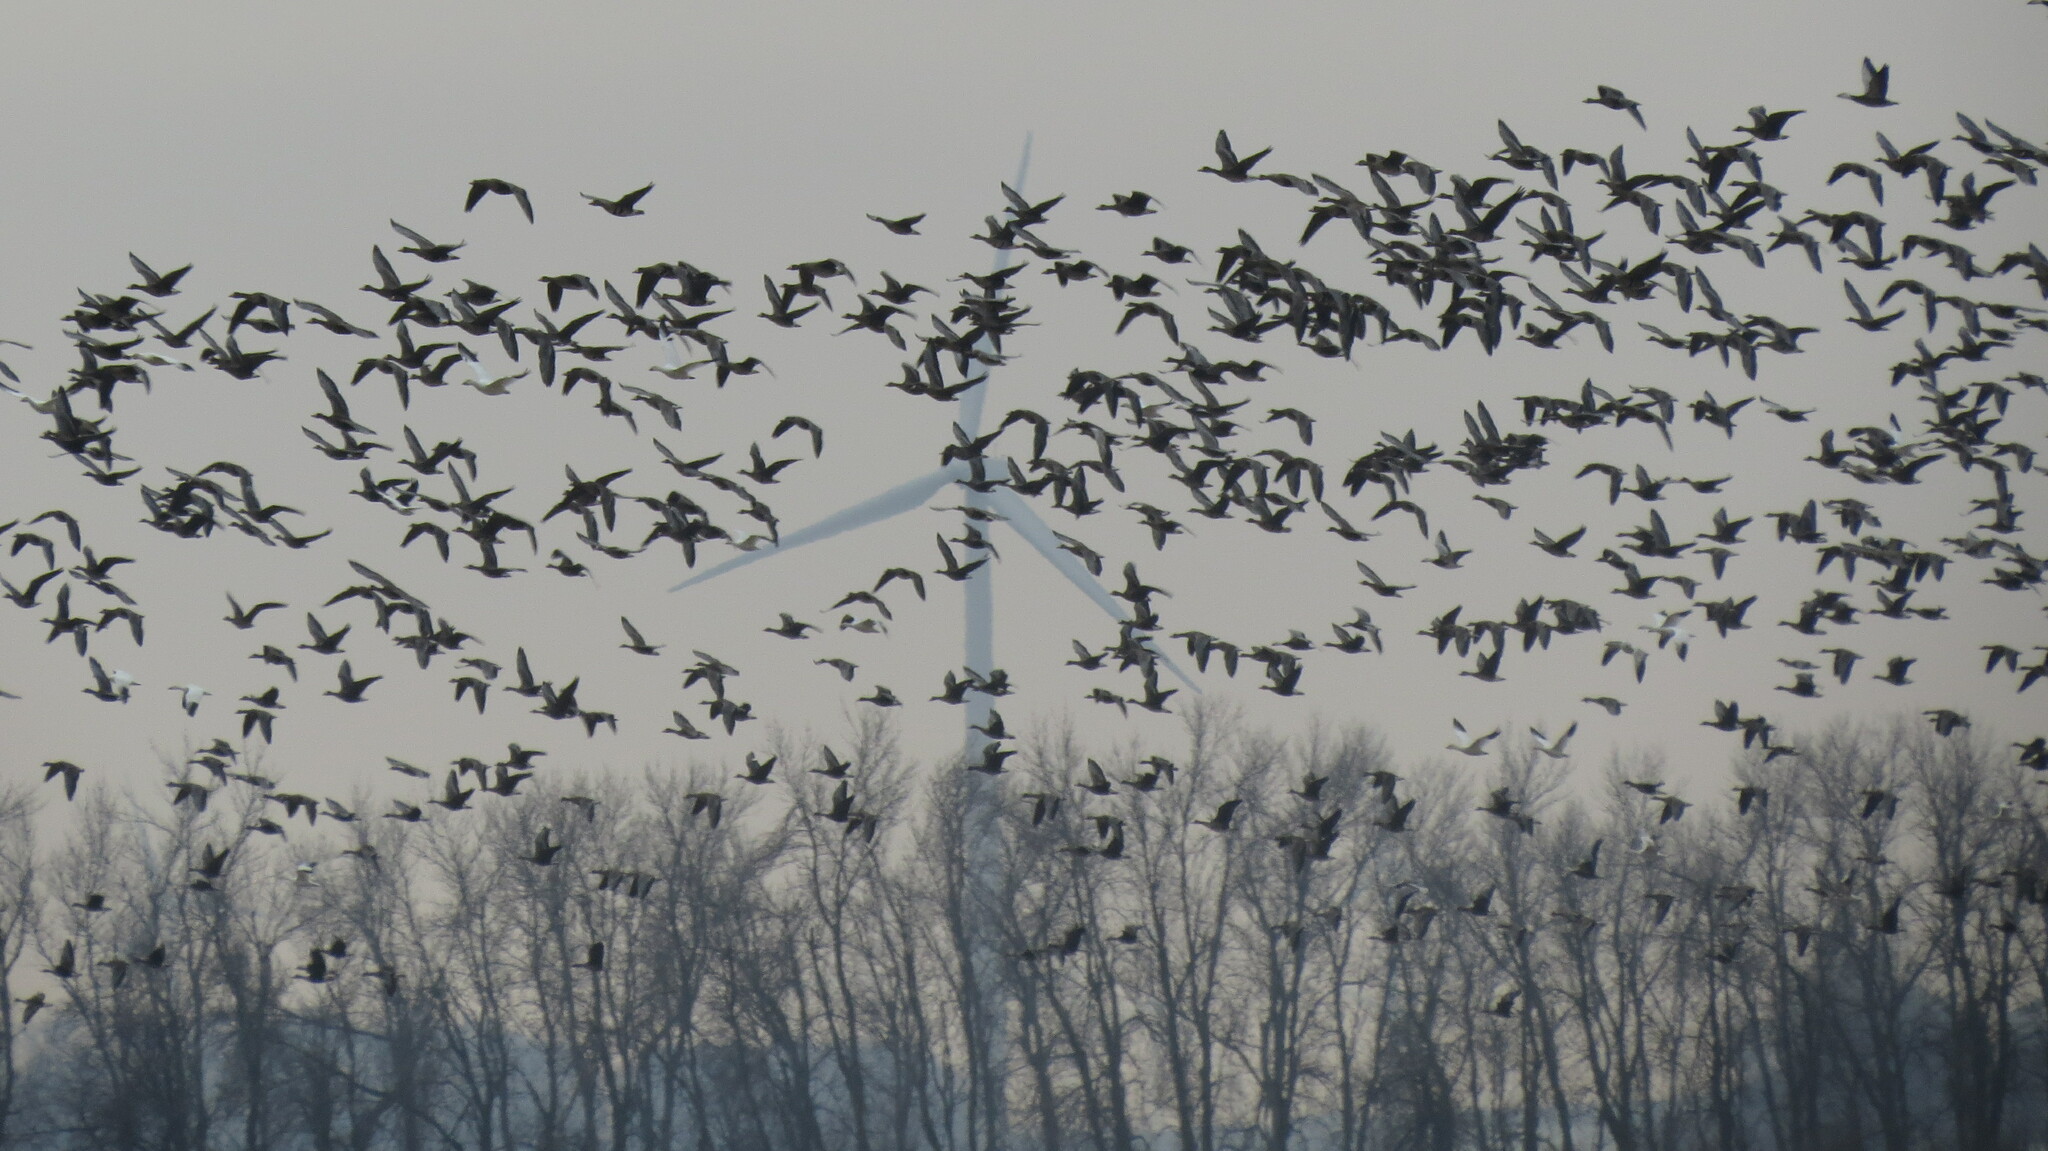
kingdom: Animalia
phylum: Chordata
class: Aves
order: Anseriformes
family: Anatidae
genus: Anser
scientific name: Anser caerulescens
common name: Snow goose
